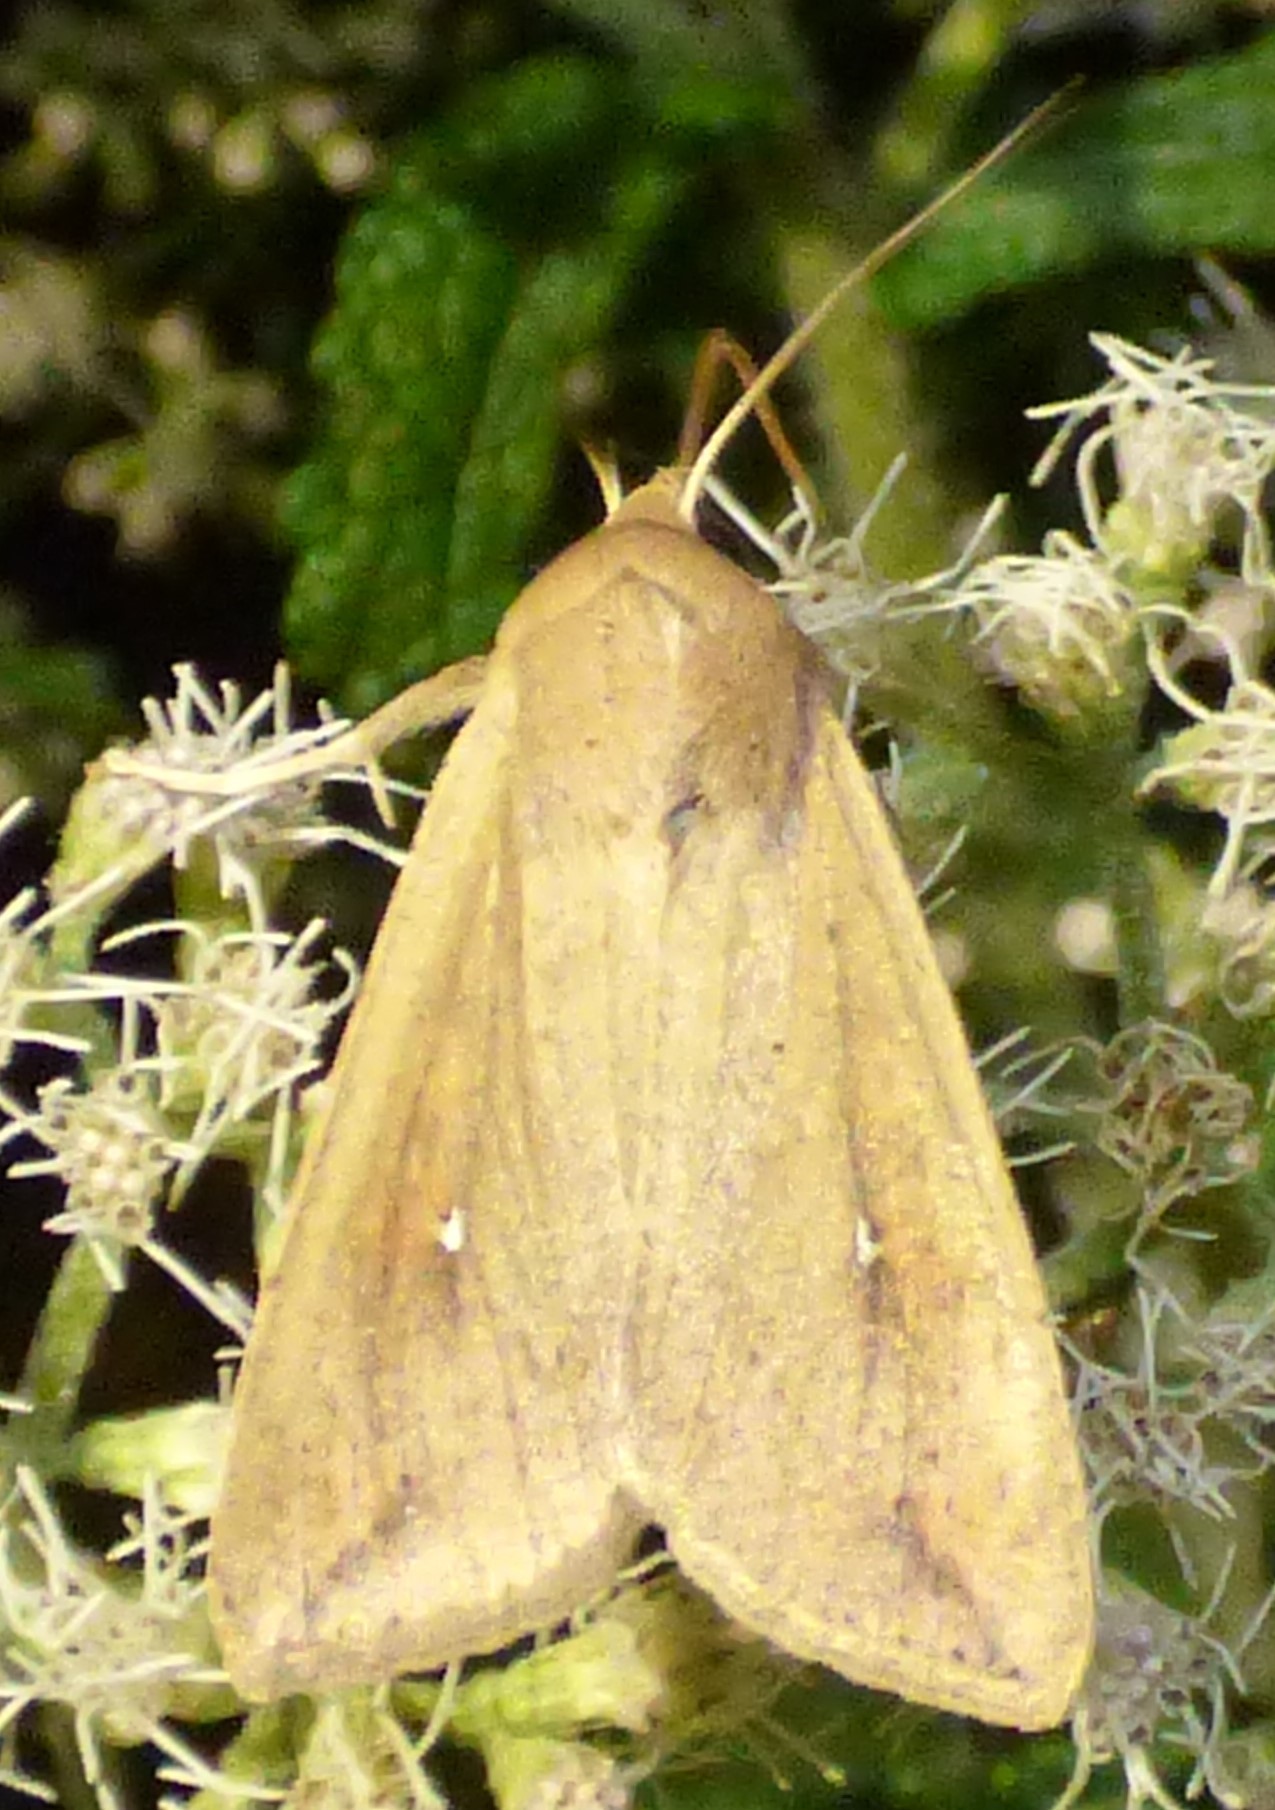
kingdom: Animalia
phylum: Arthropoda
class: Insecta
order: Lepidoptera
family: Noctuidae
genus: Mythimna
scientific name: Mythimna unipuncta
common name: White-speck
